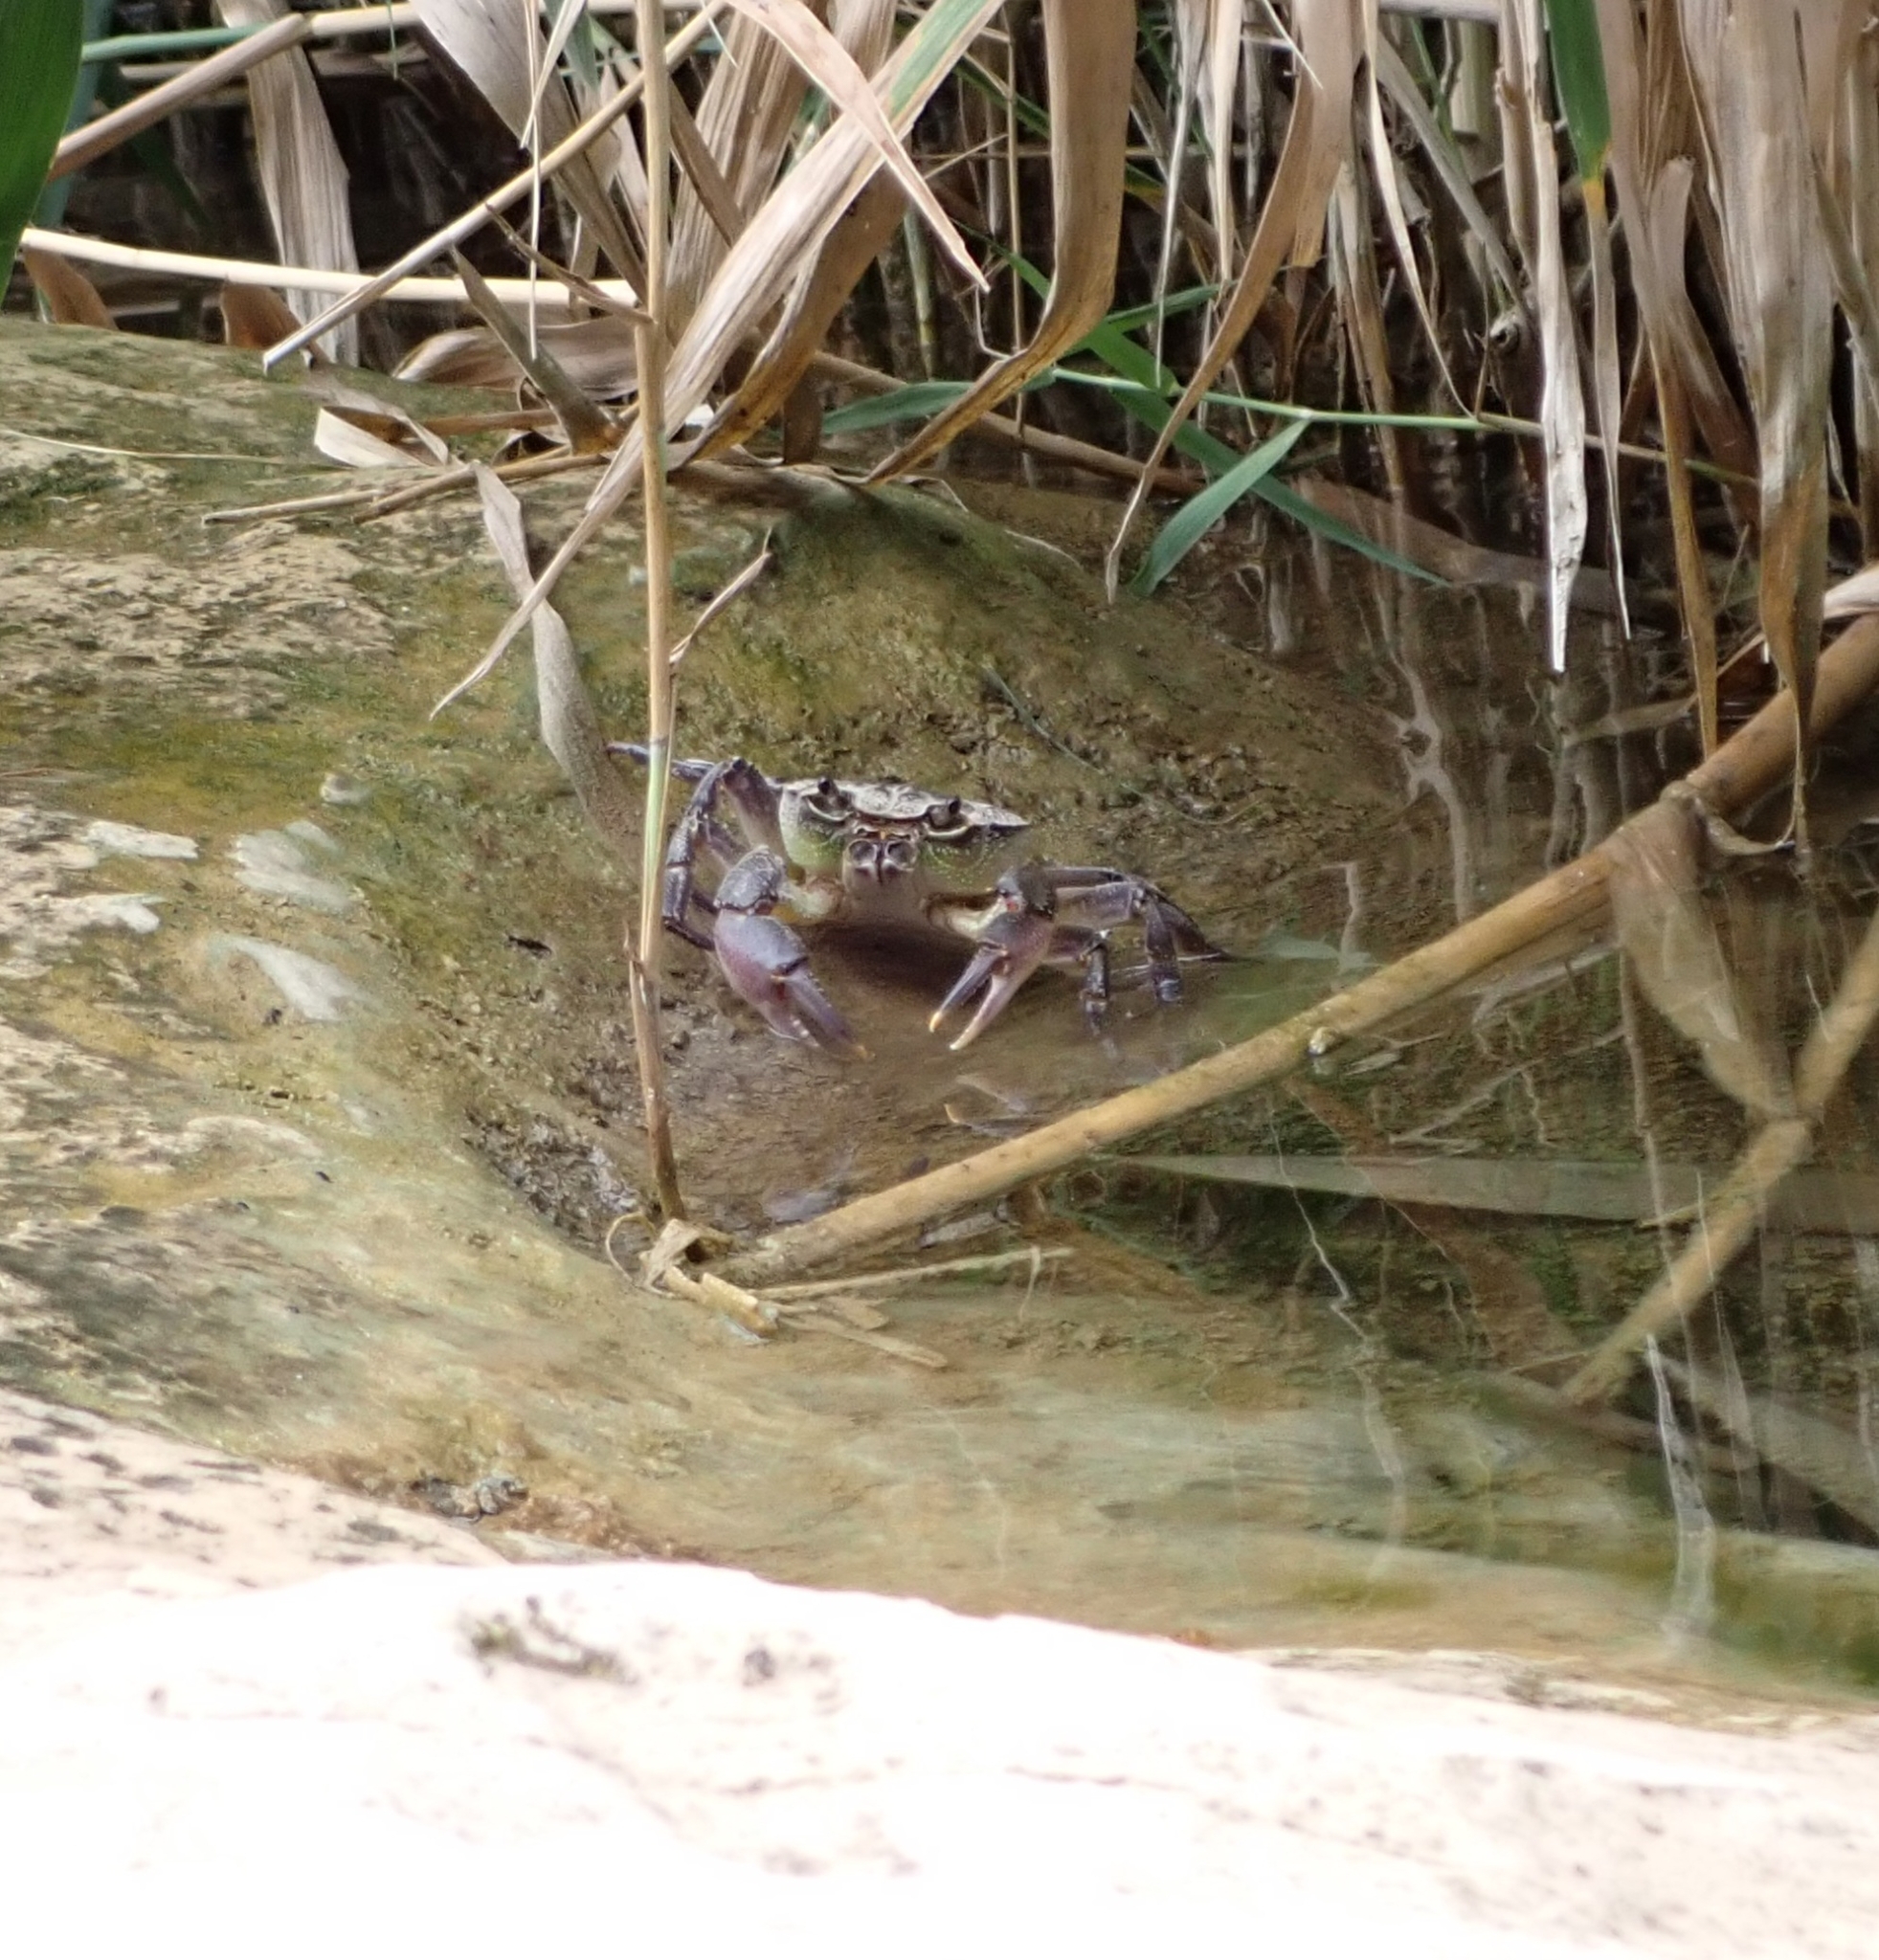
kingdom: Animalia
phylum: Arthropoda
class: Malacostraca
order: Decapoda
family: Potamidae
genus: Potamon
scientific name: Potamon fluviatile
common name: Italian freshwater crab
